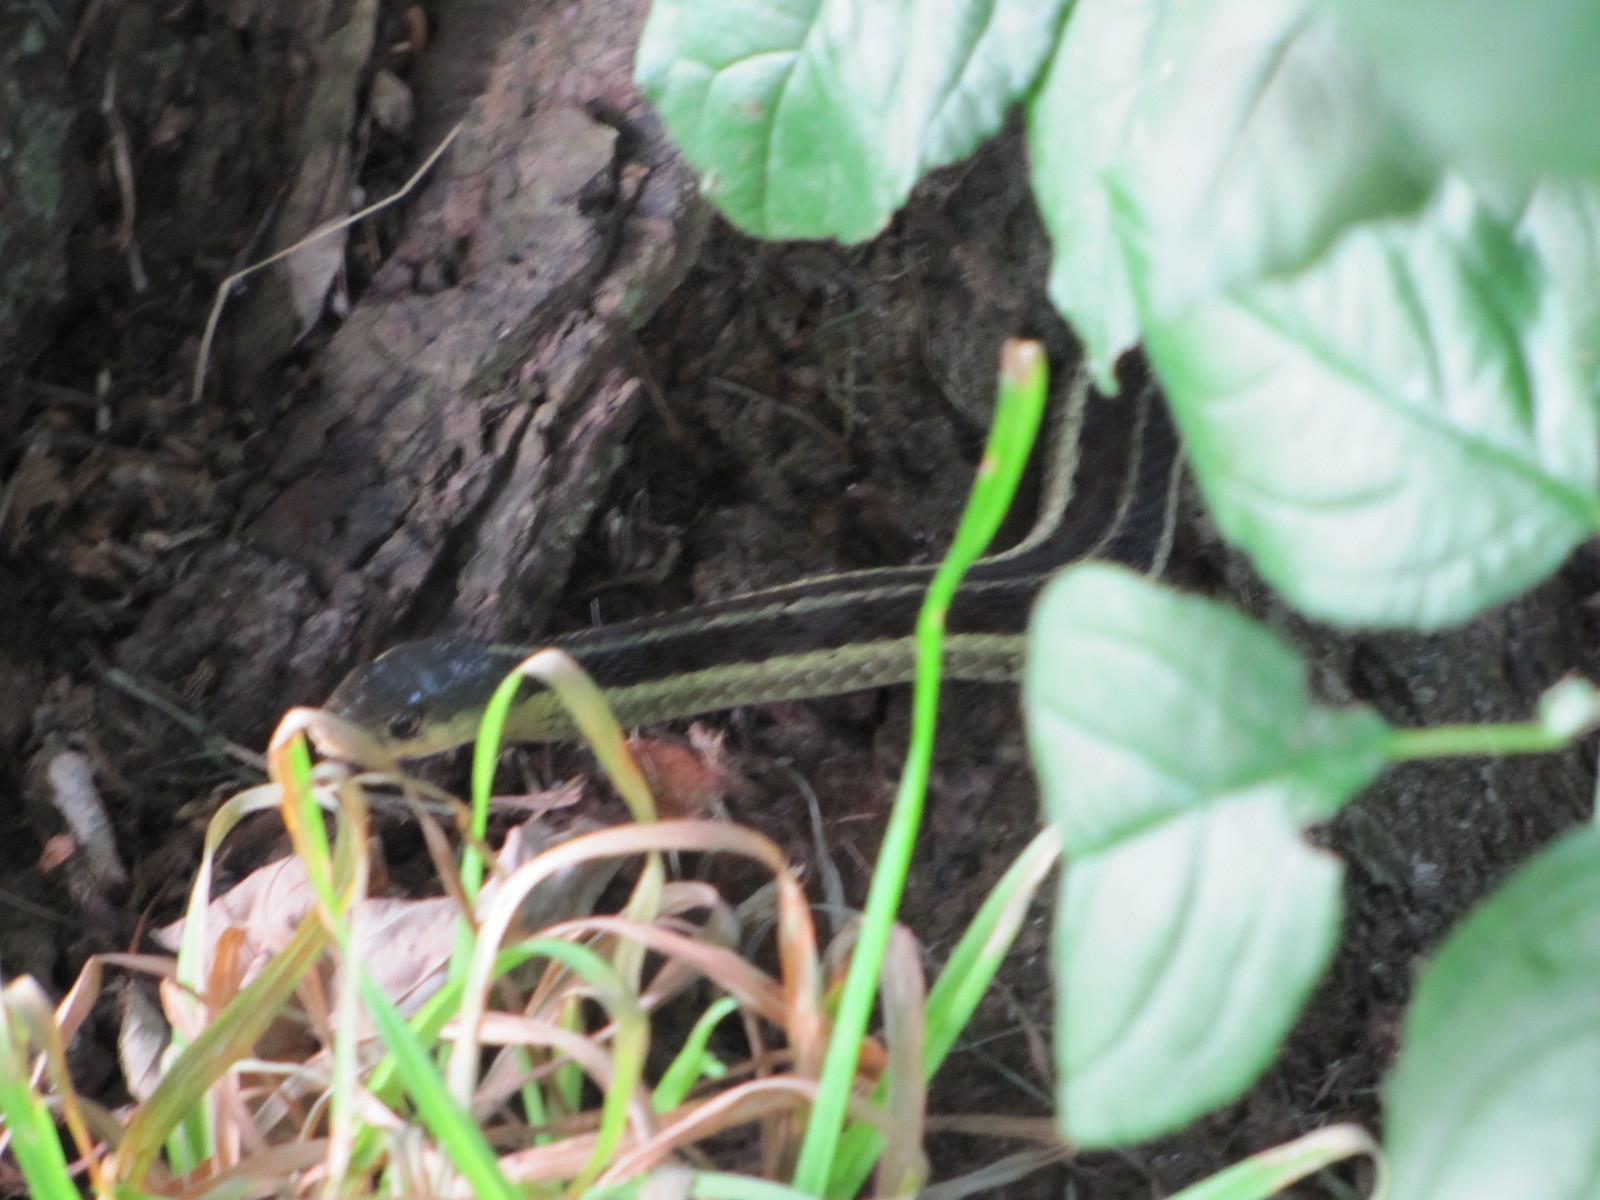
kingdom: Animalia
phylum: Chordata
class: Squamata
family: Colubridae
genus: Thamnophis
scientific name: Thamnophis sirtalis
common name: Common garter snake
